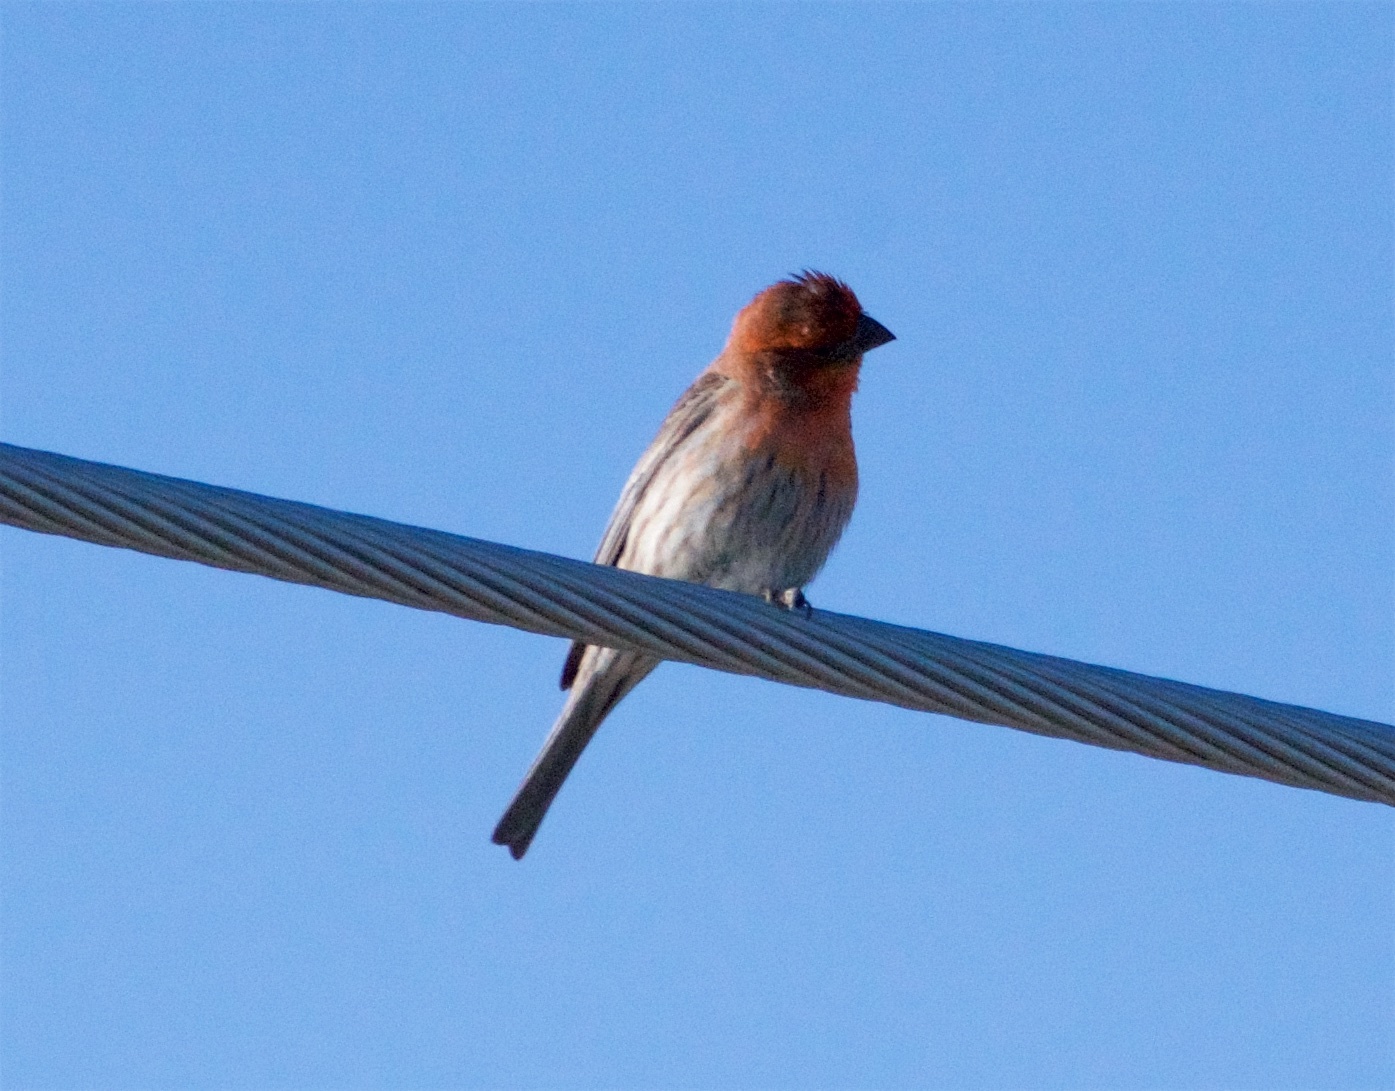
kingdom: Animalia
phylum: Chordata
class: Aves
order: Passeriformes
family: Fringillidae
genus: Haemorhous
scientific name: Haemorhous mexicanus
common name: House finch
